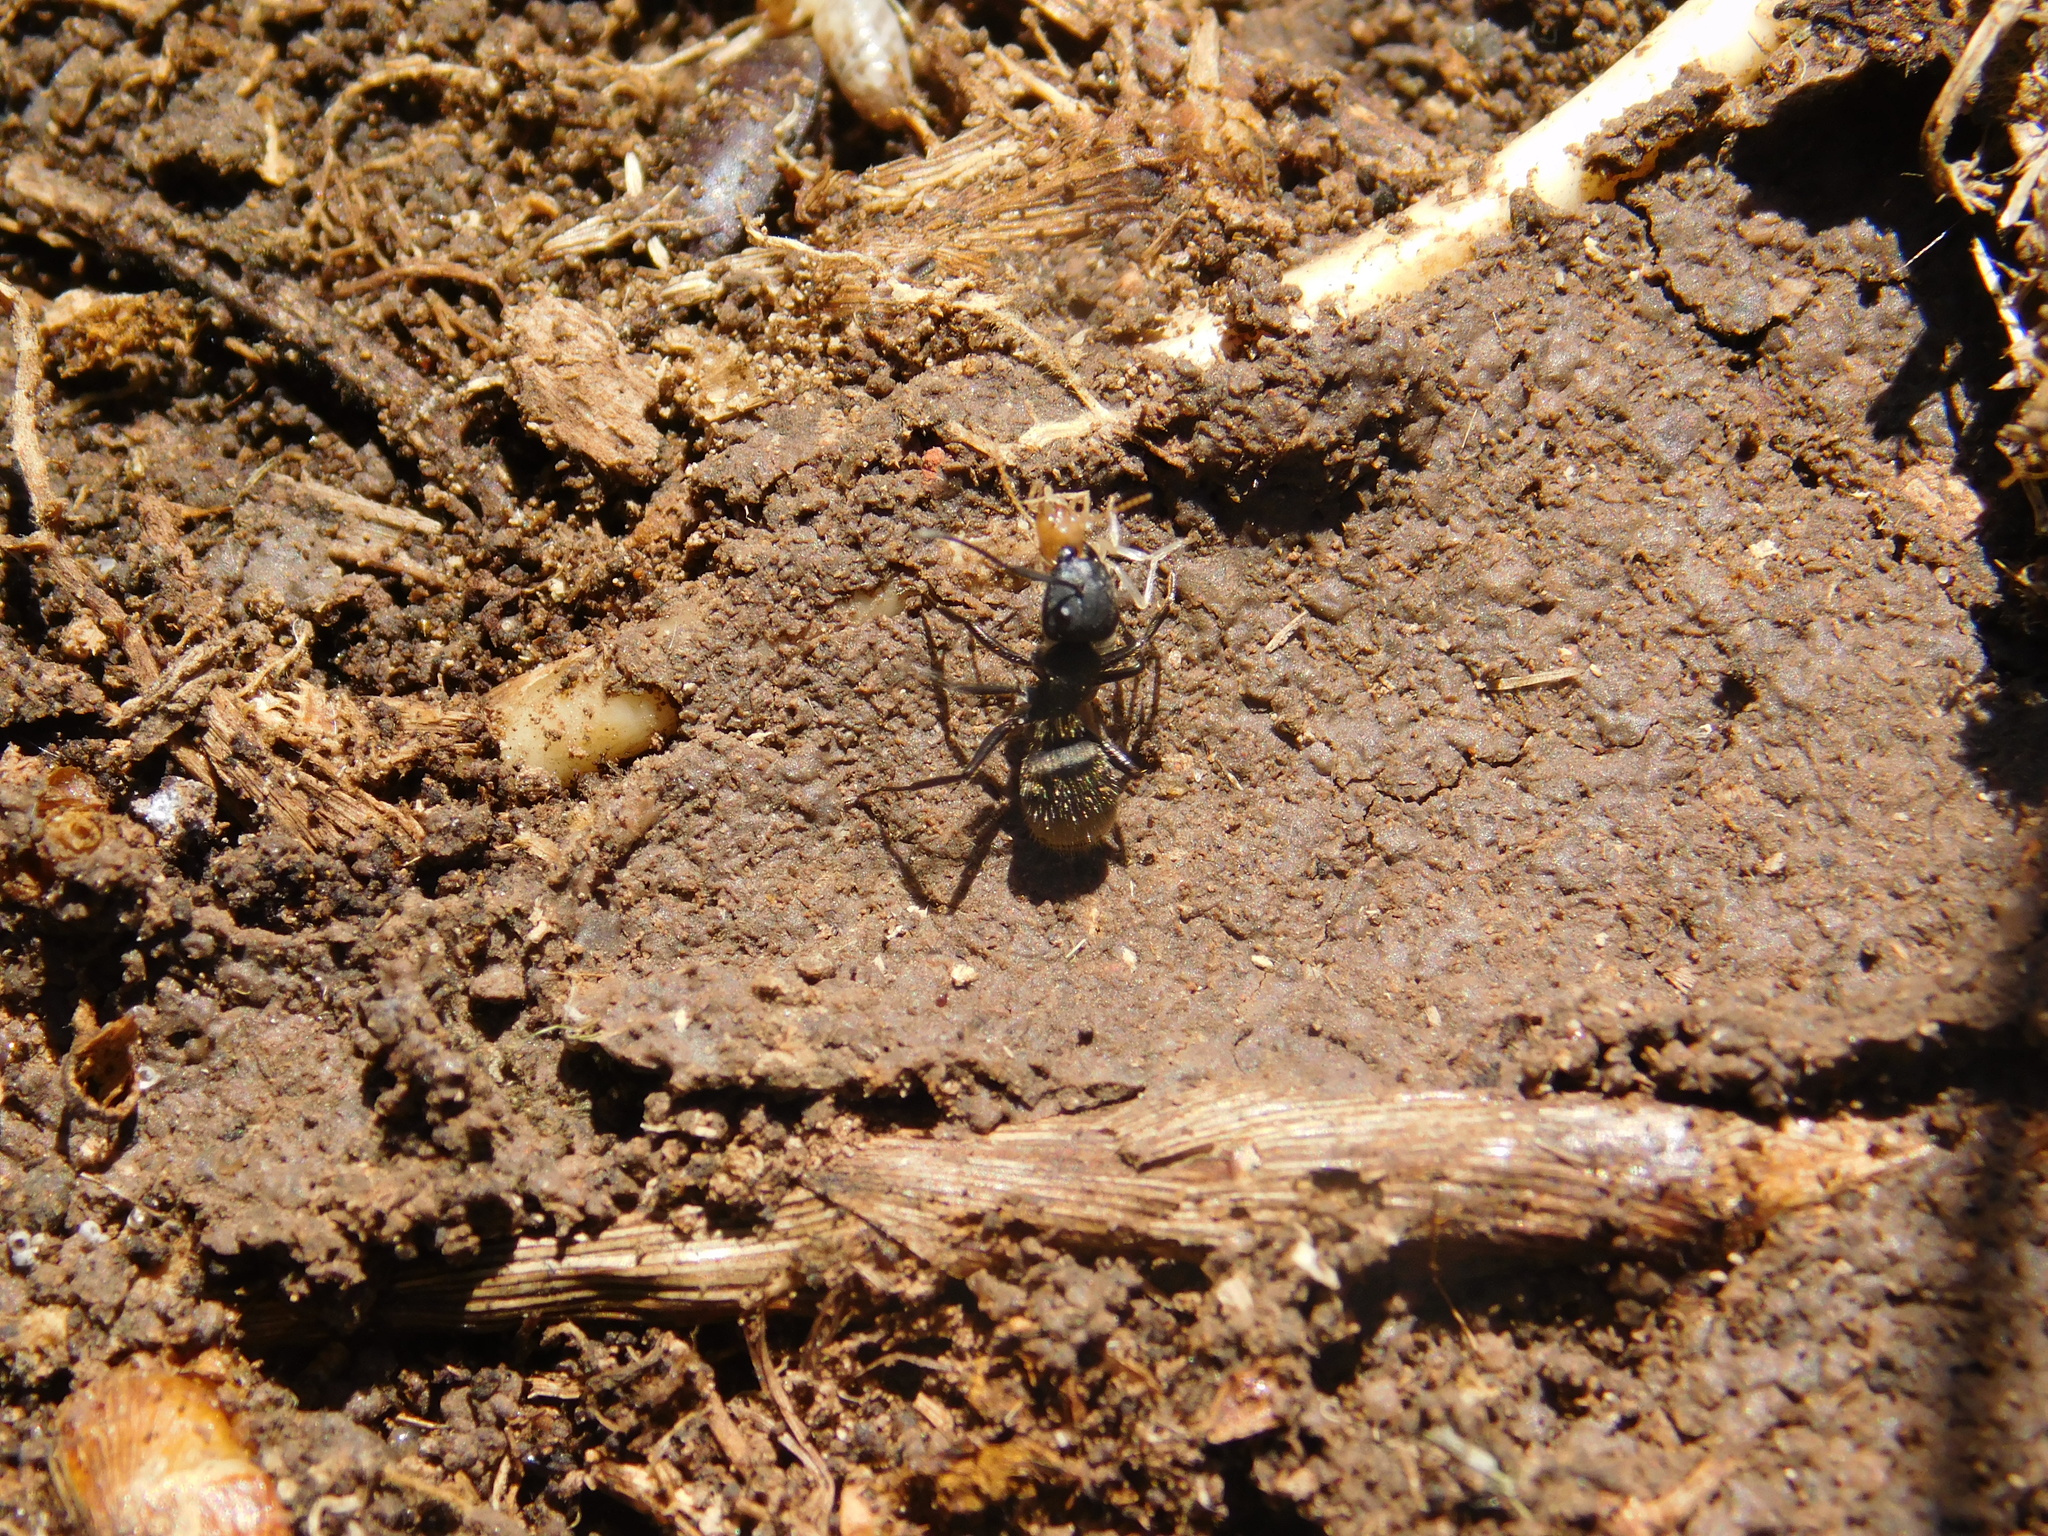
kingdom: Animalia
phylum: Arthropoda
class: Insecta
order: Hymenoptera
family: Formicidae
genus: Camponotus
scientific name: Camponotus mus
